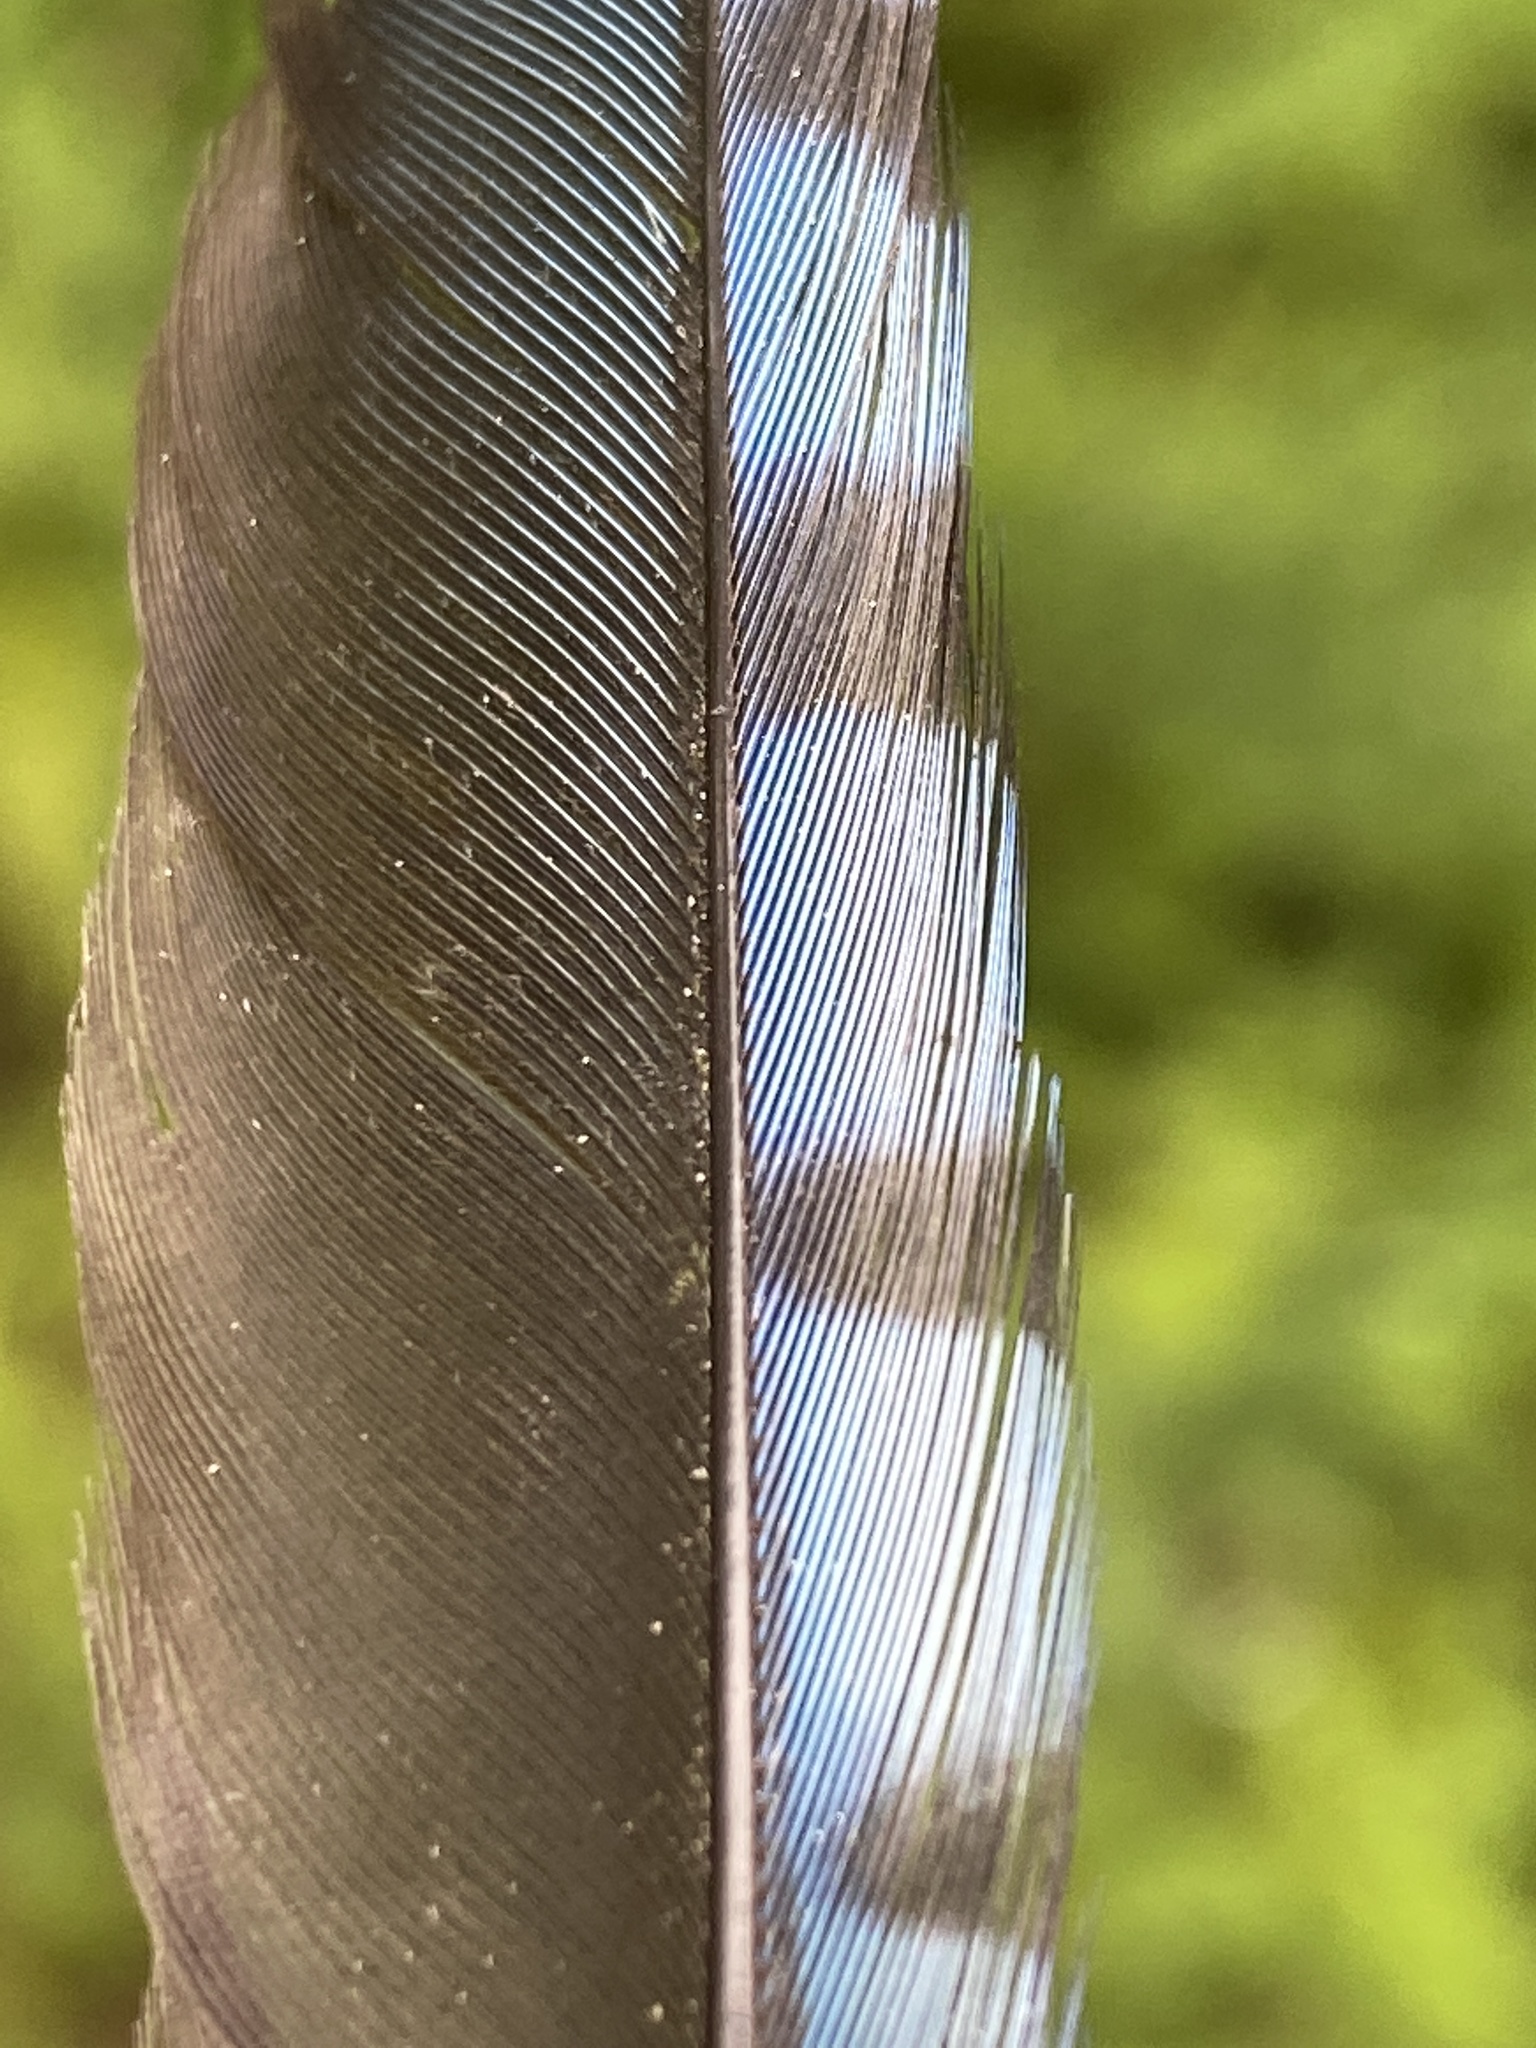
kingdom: Animalia
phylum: Chordata
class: Aves
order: Passeriformes
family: Corvidae
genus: Cyanocitta
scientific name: Cyanocitta cristata
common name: Blue jay
